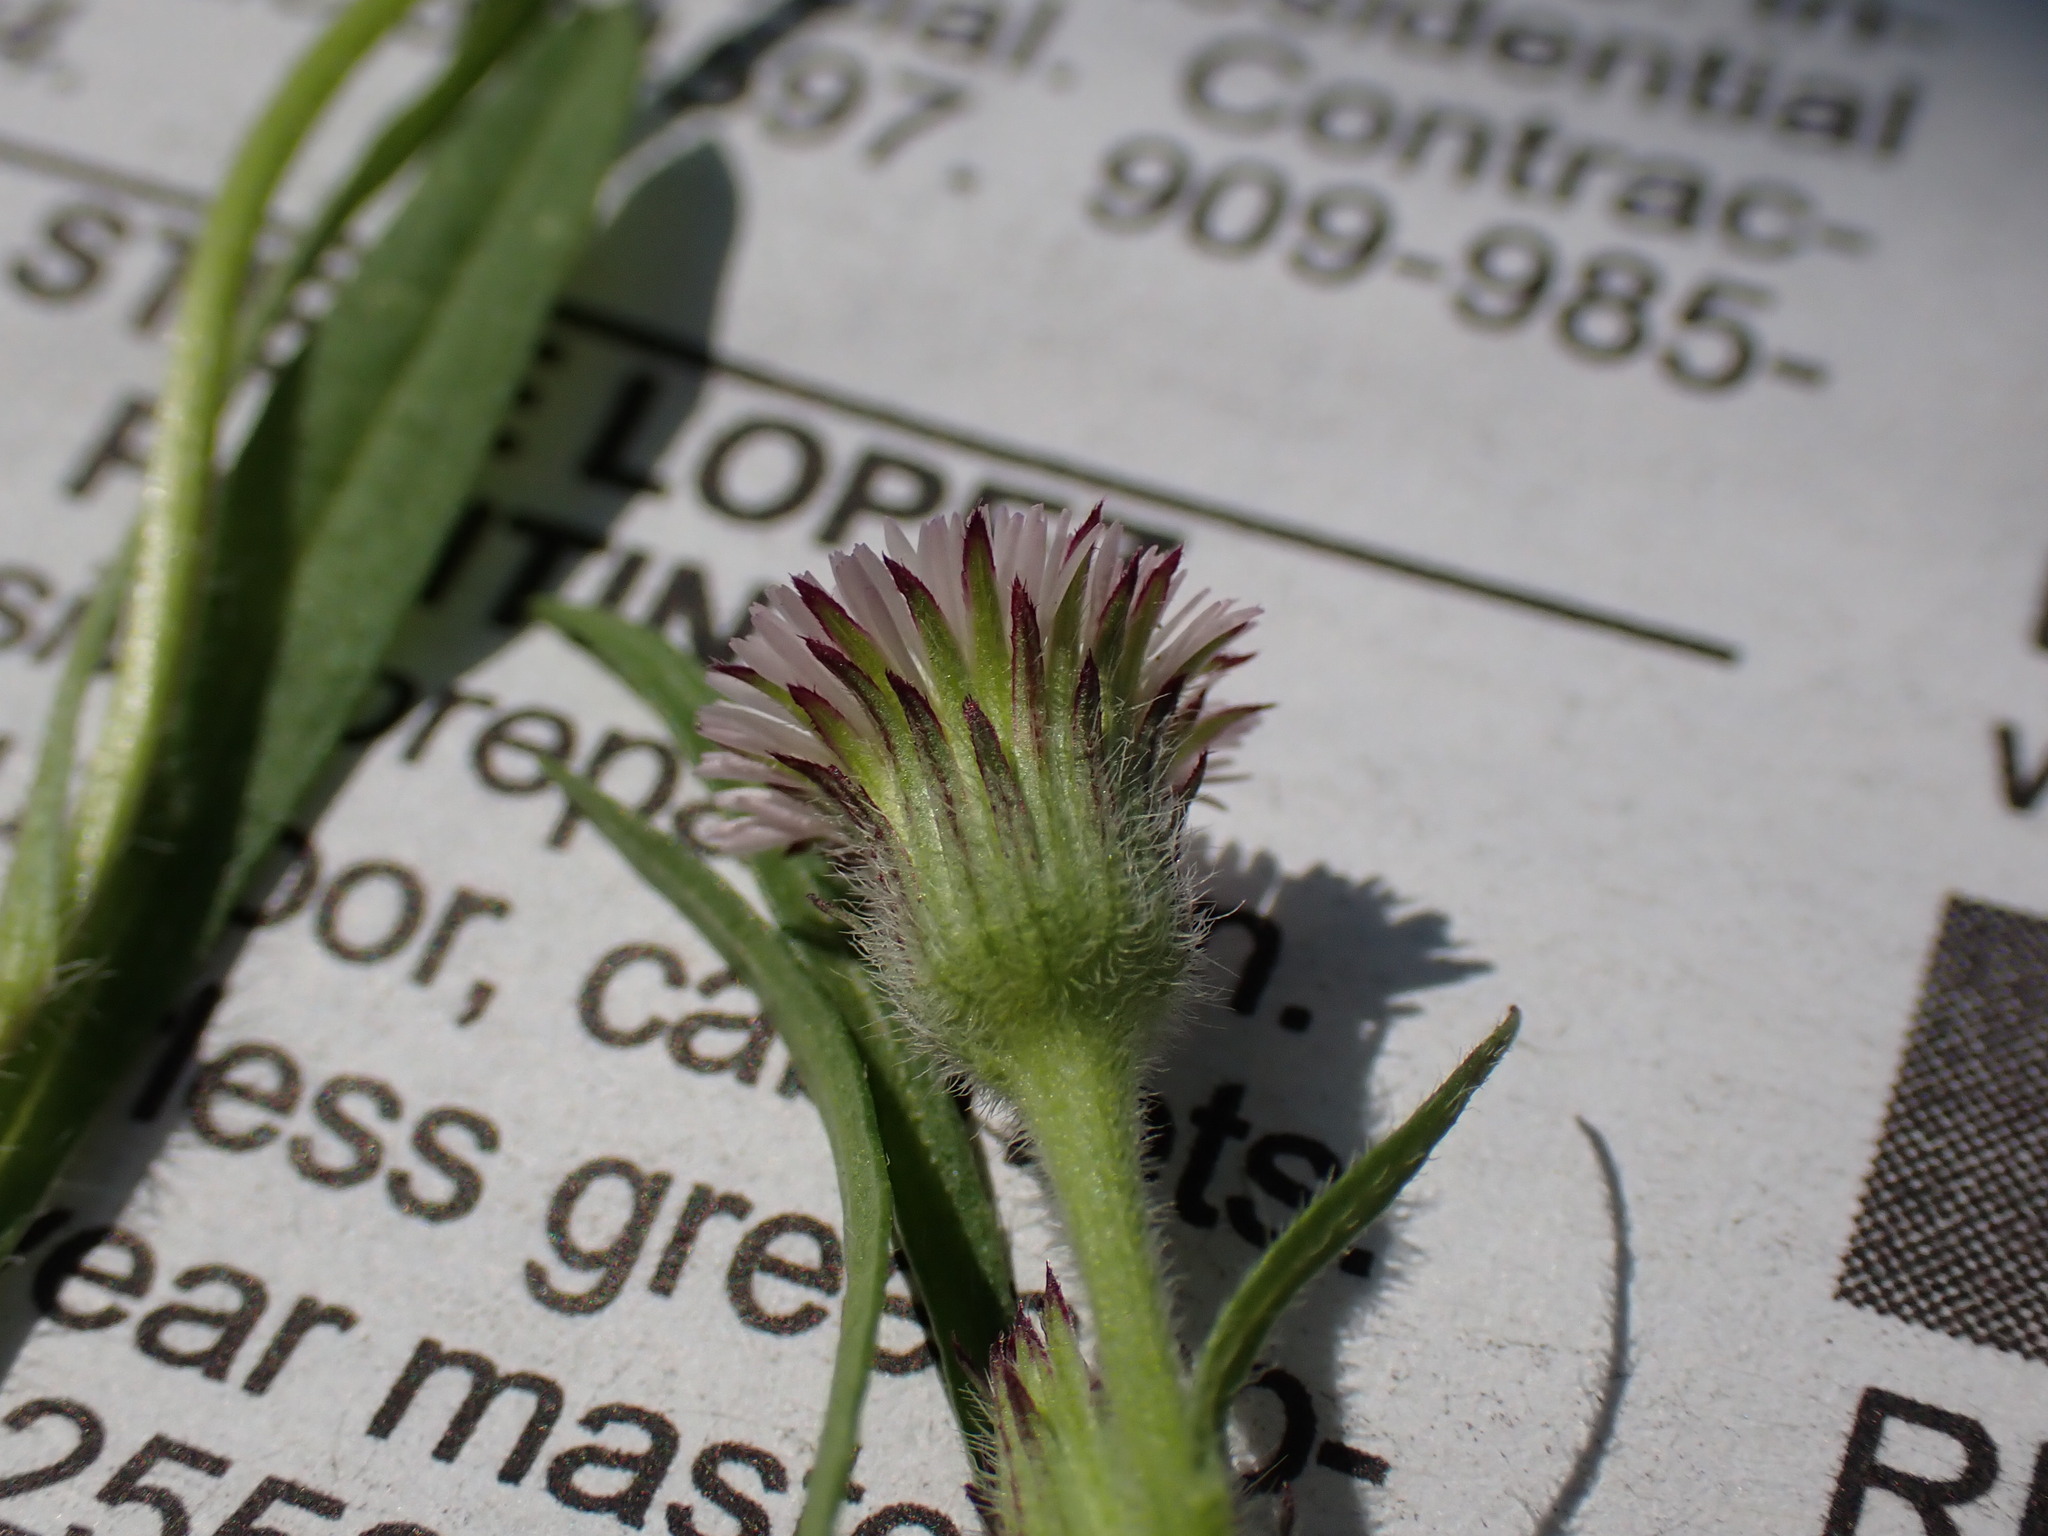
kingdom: Plantae
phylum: Tracheophyta
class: Magnoliopsida
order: Asterales
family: Asteraceae
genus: Erigeron
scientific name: Erigeron lonchophyllus
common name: Short-ray fleabane
